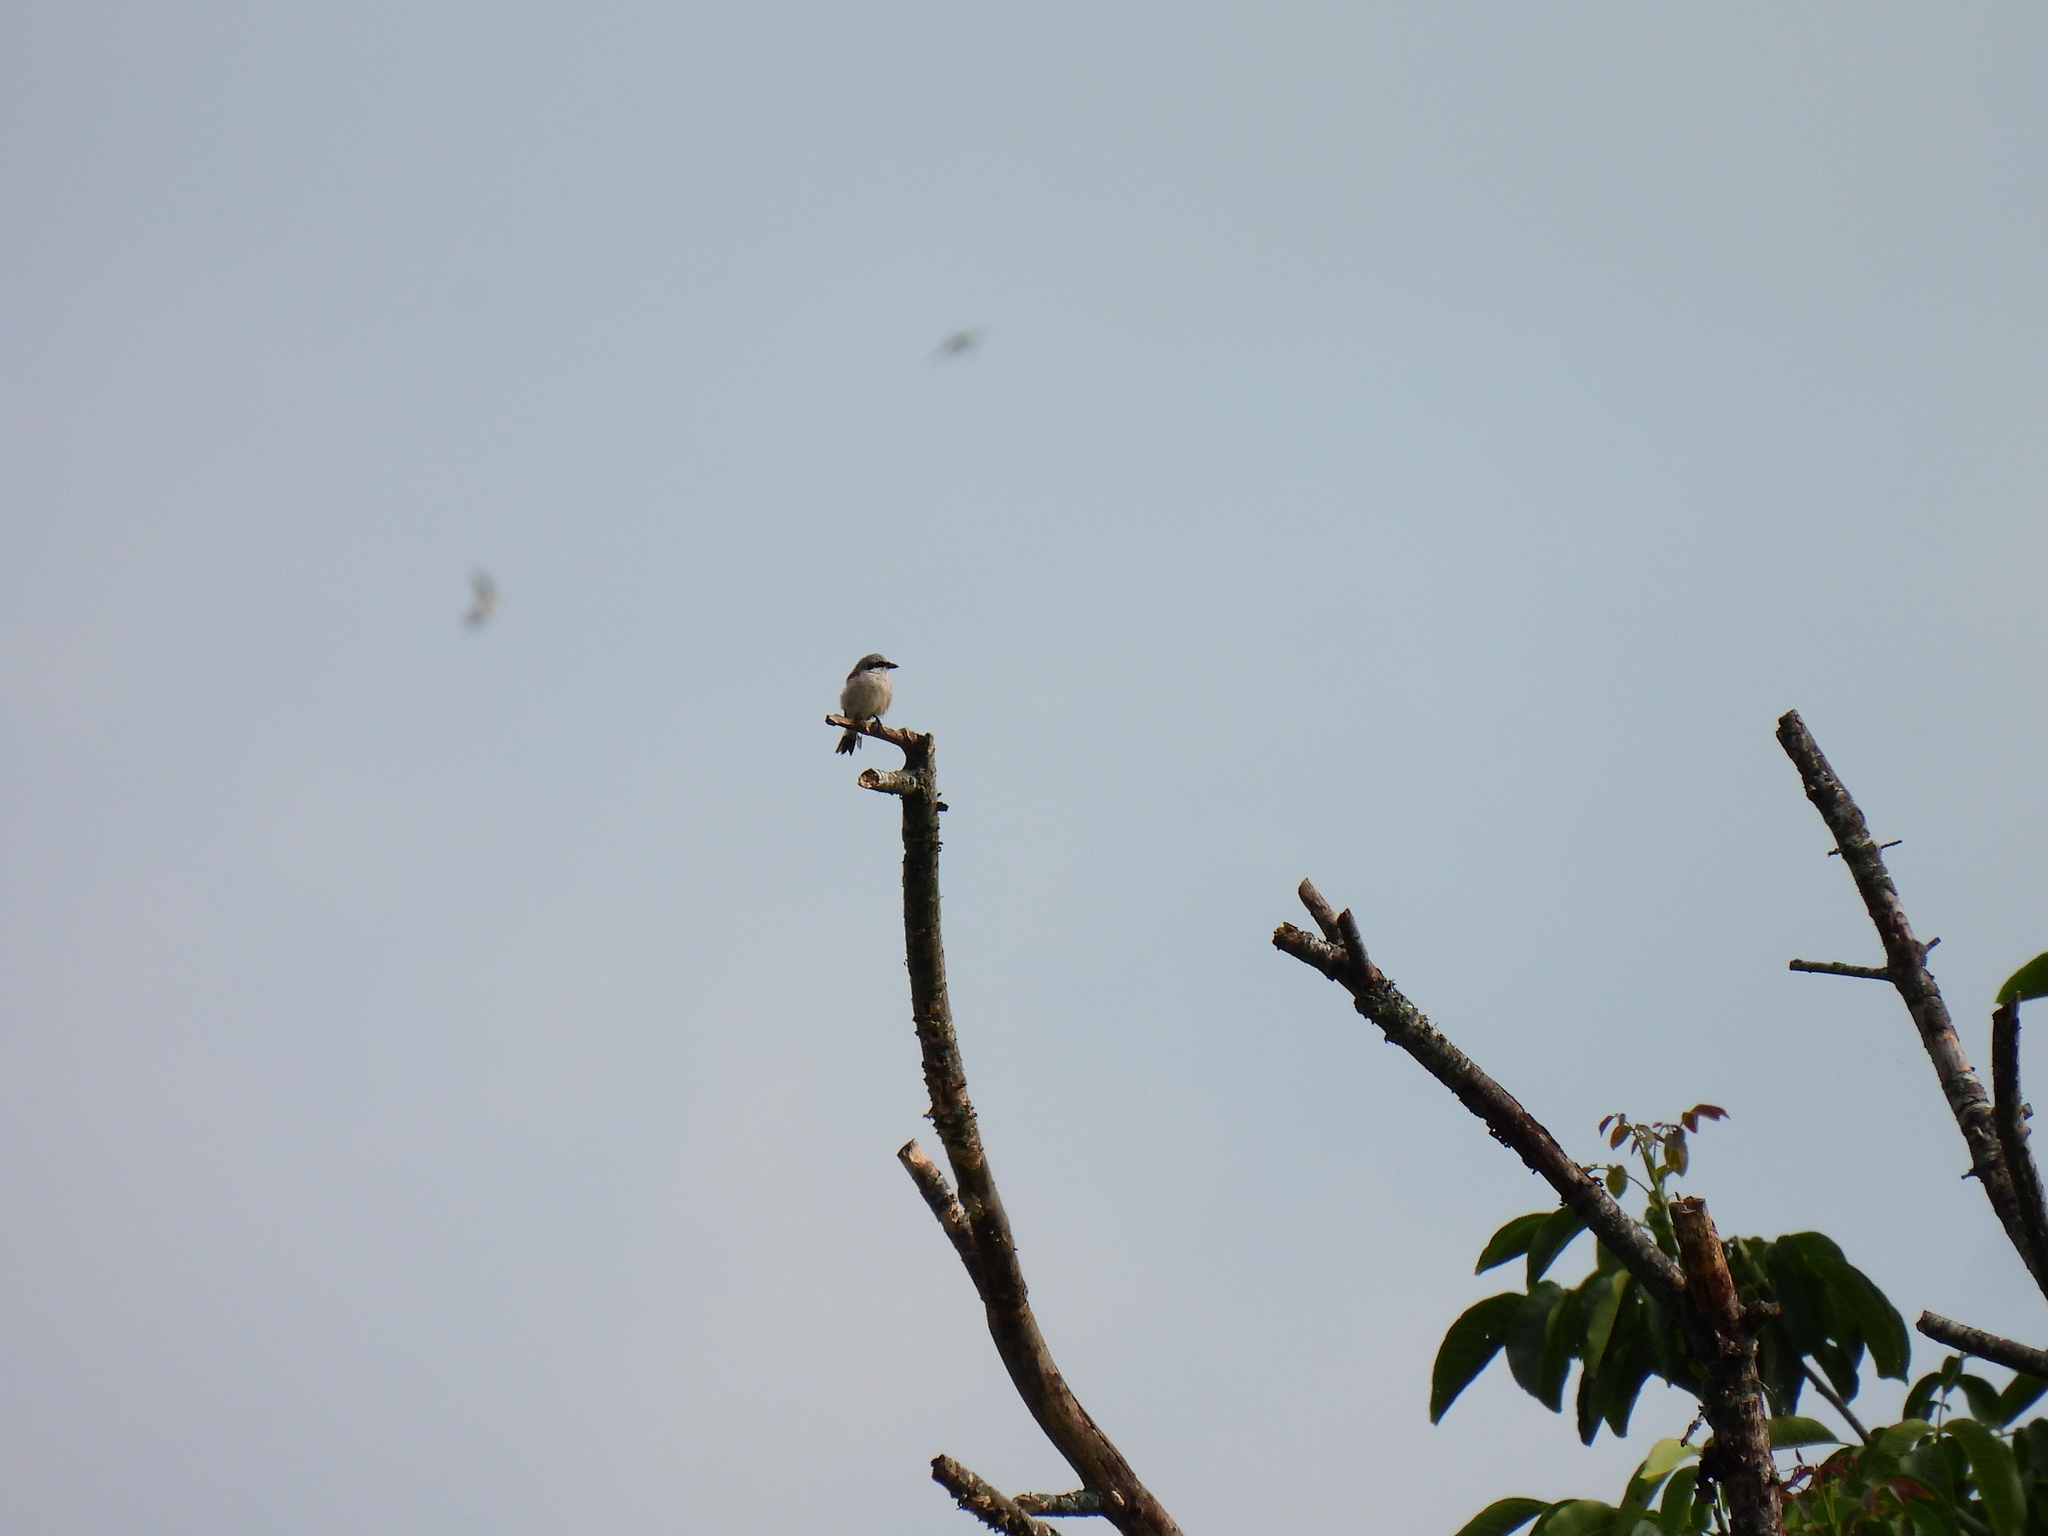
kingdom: Animalia
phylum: Chordata
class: Aves
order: Passeriformes
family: Laniidae
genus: Lanius
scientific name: Lanius collurio
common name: Red-backed shrike
